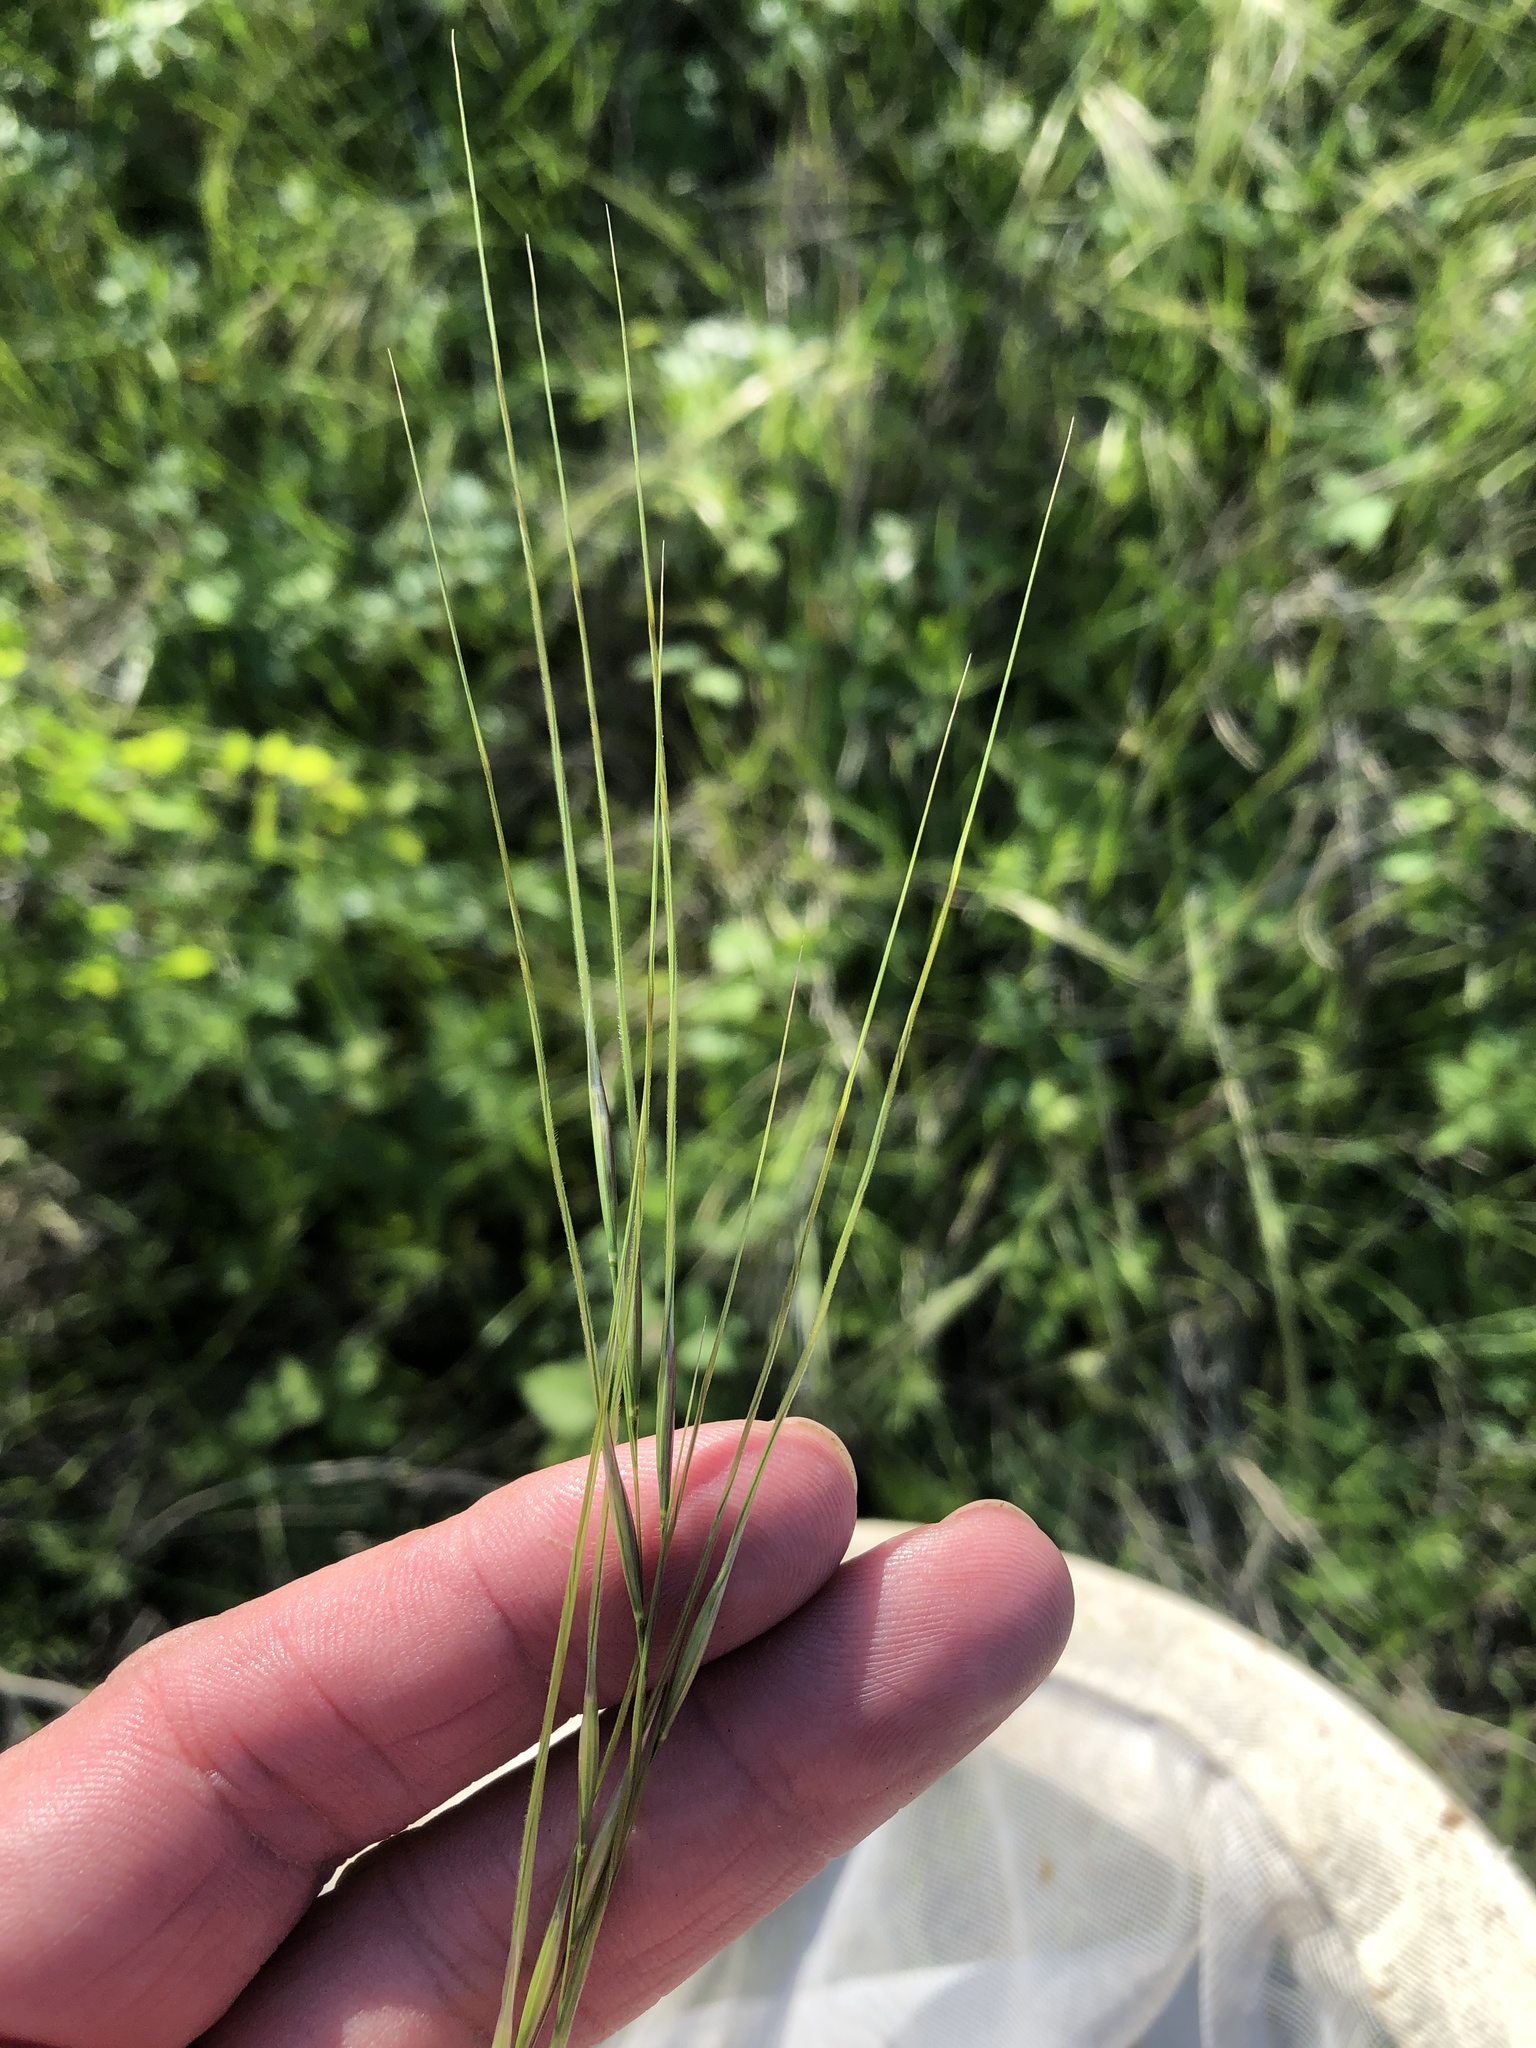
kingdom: Plantae
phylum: Tracheophyta
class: Liliopsida
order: Poales
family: Poaceae
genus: Nassella
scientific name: Nassella leucotricha
